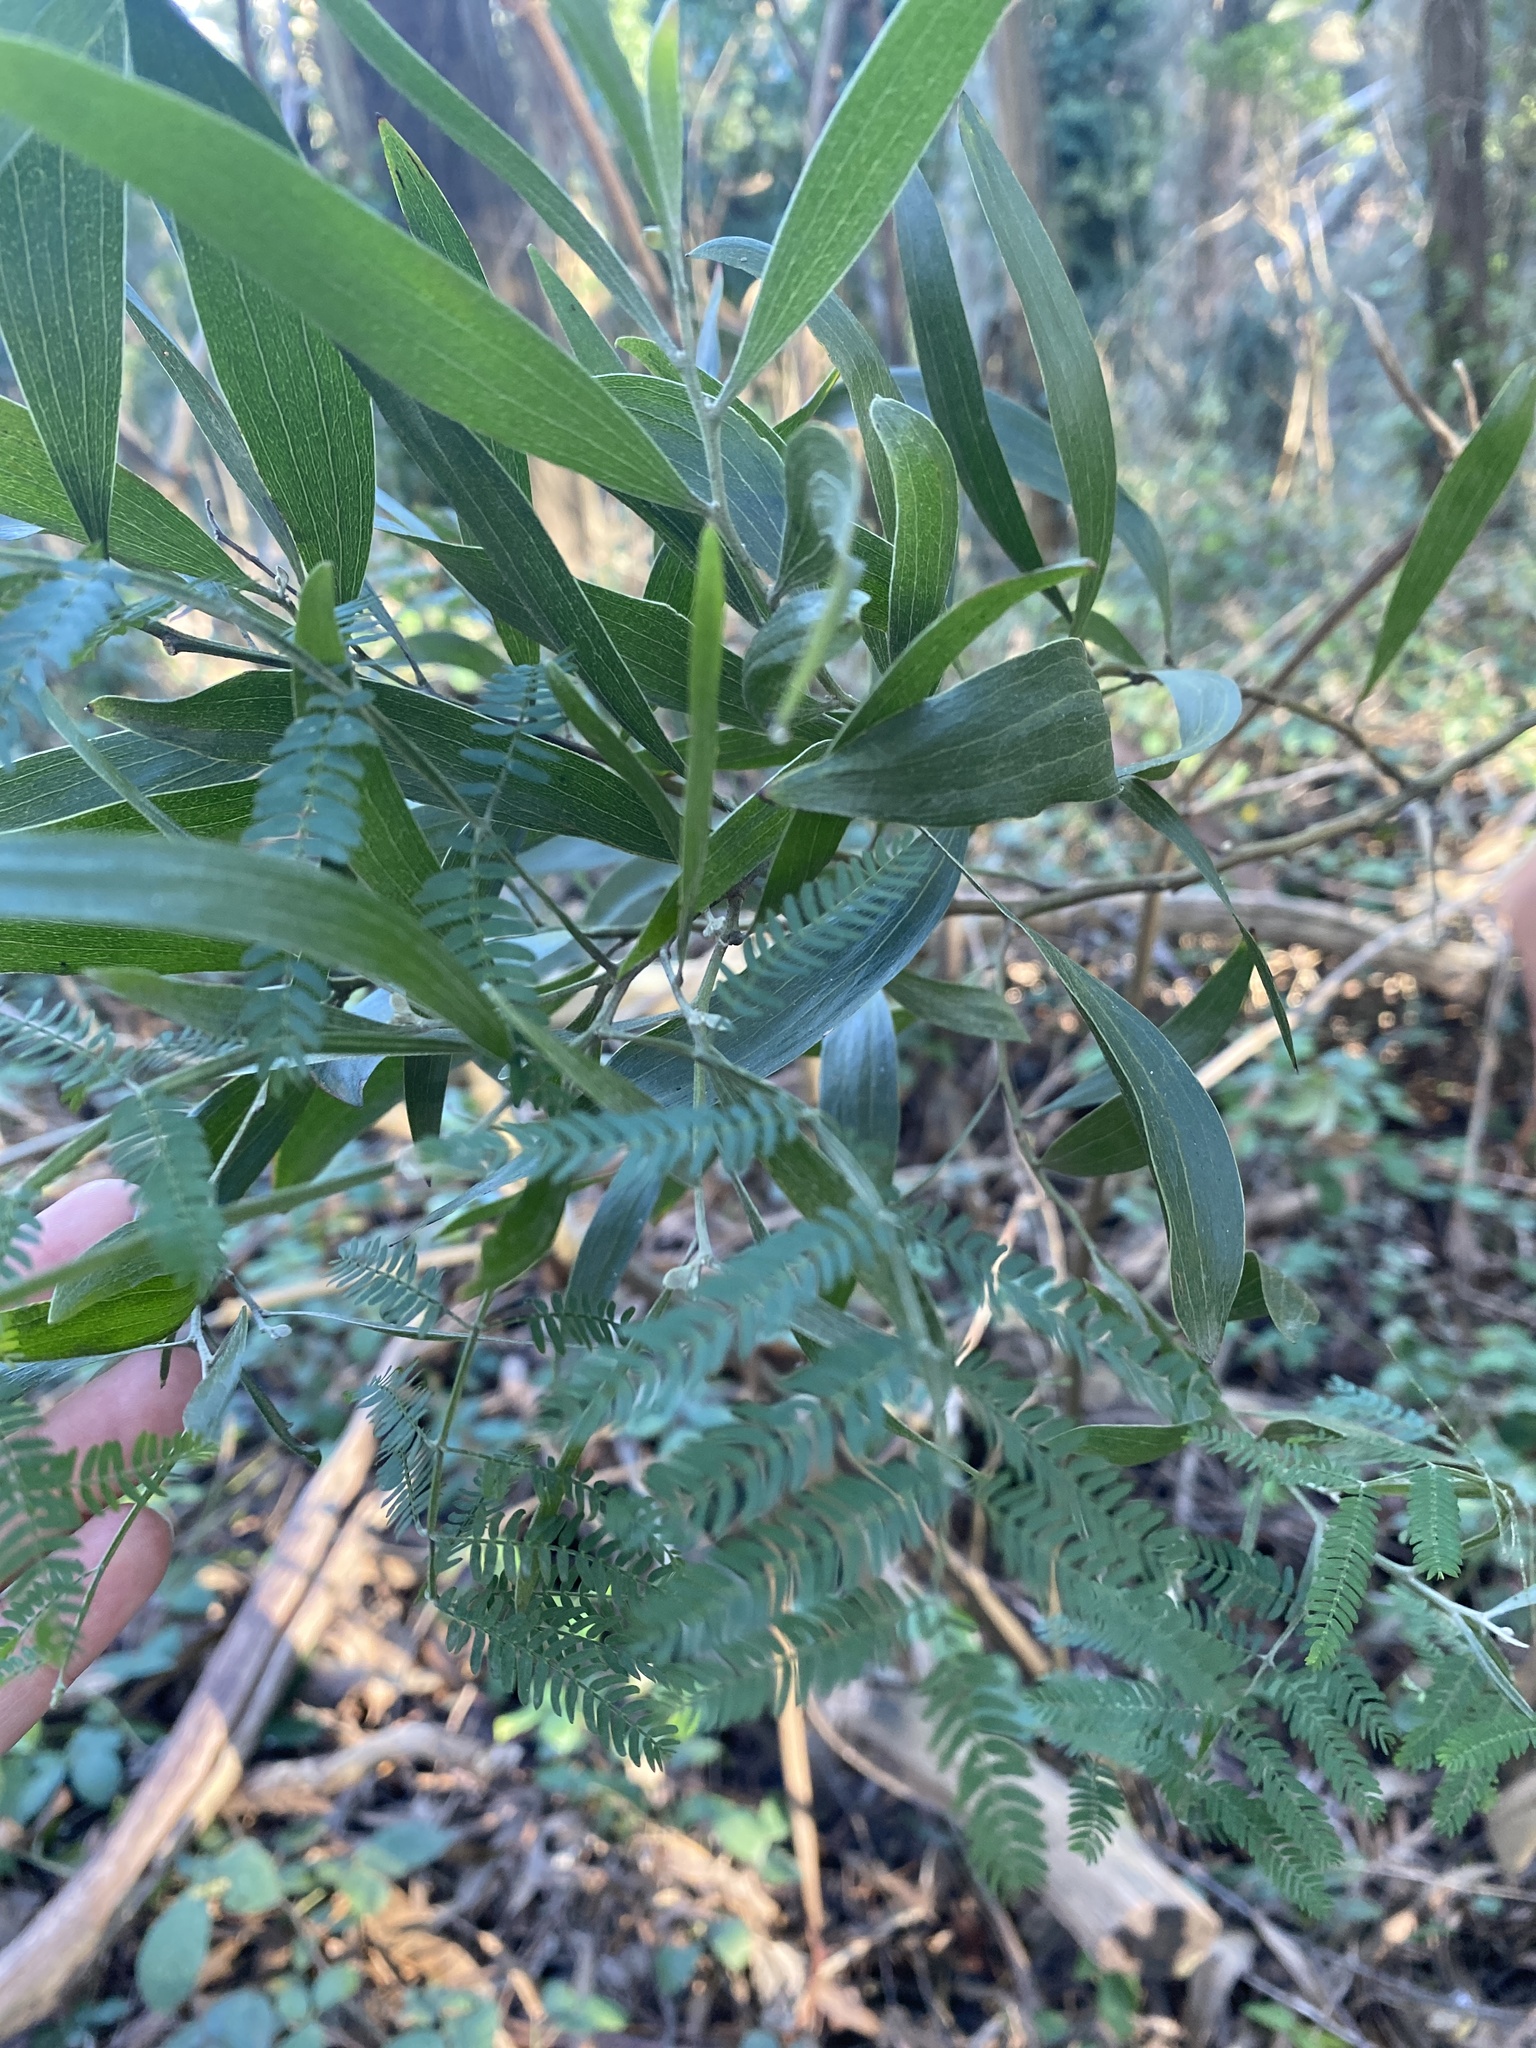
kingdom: Plantae
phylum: Tracheophyta
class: Magnoliopsida
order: Fabales
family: Fabaceae
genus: Acacia
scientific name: Acacia melanoxylon
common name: Blackwood
